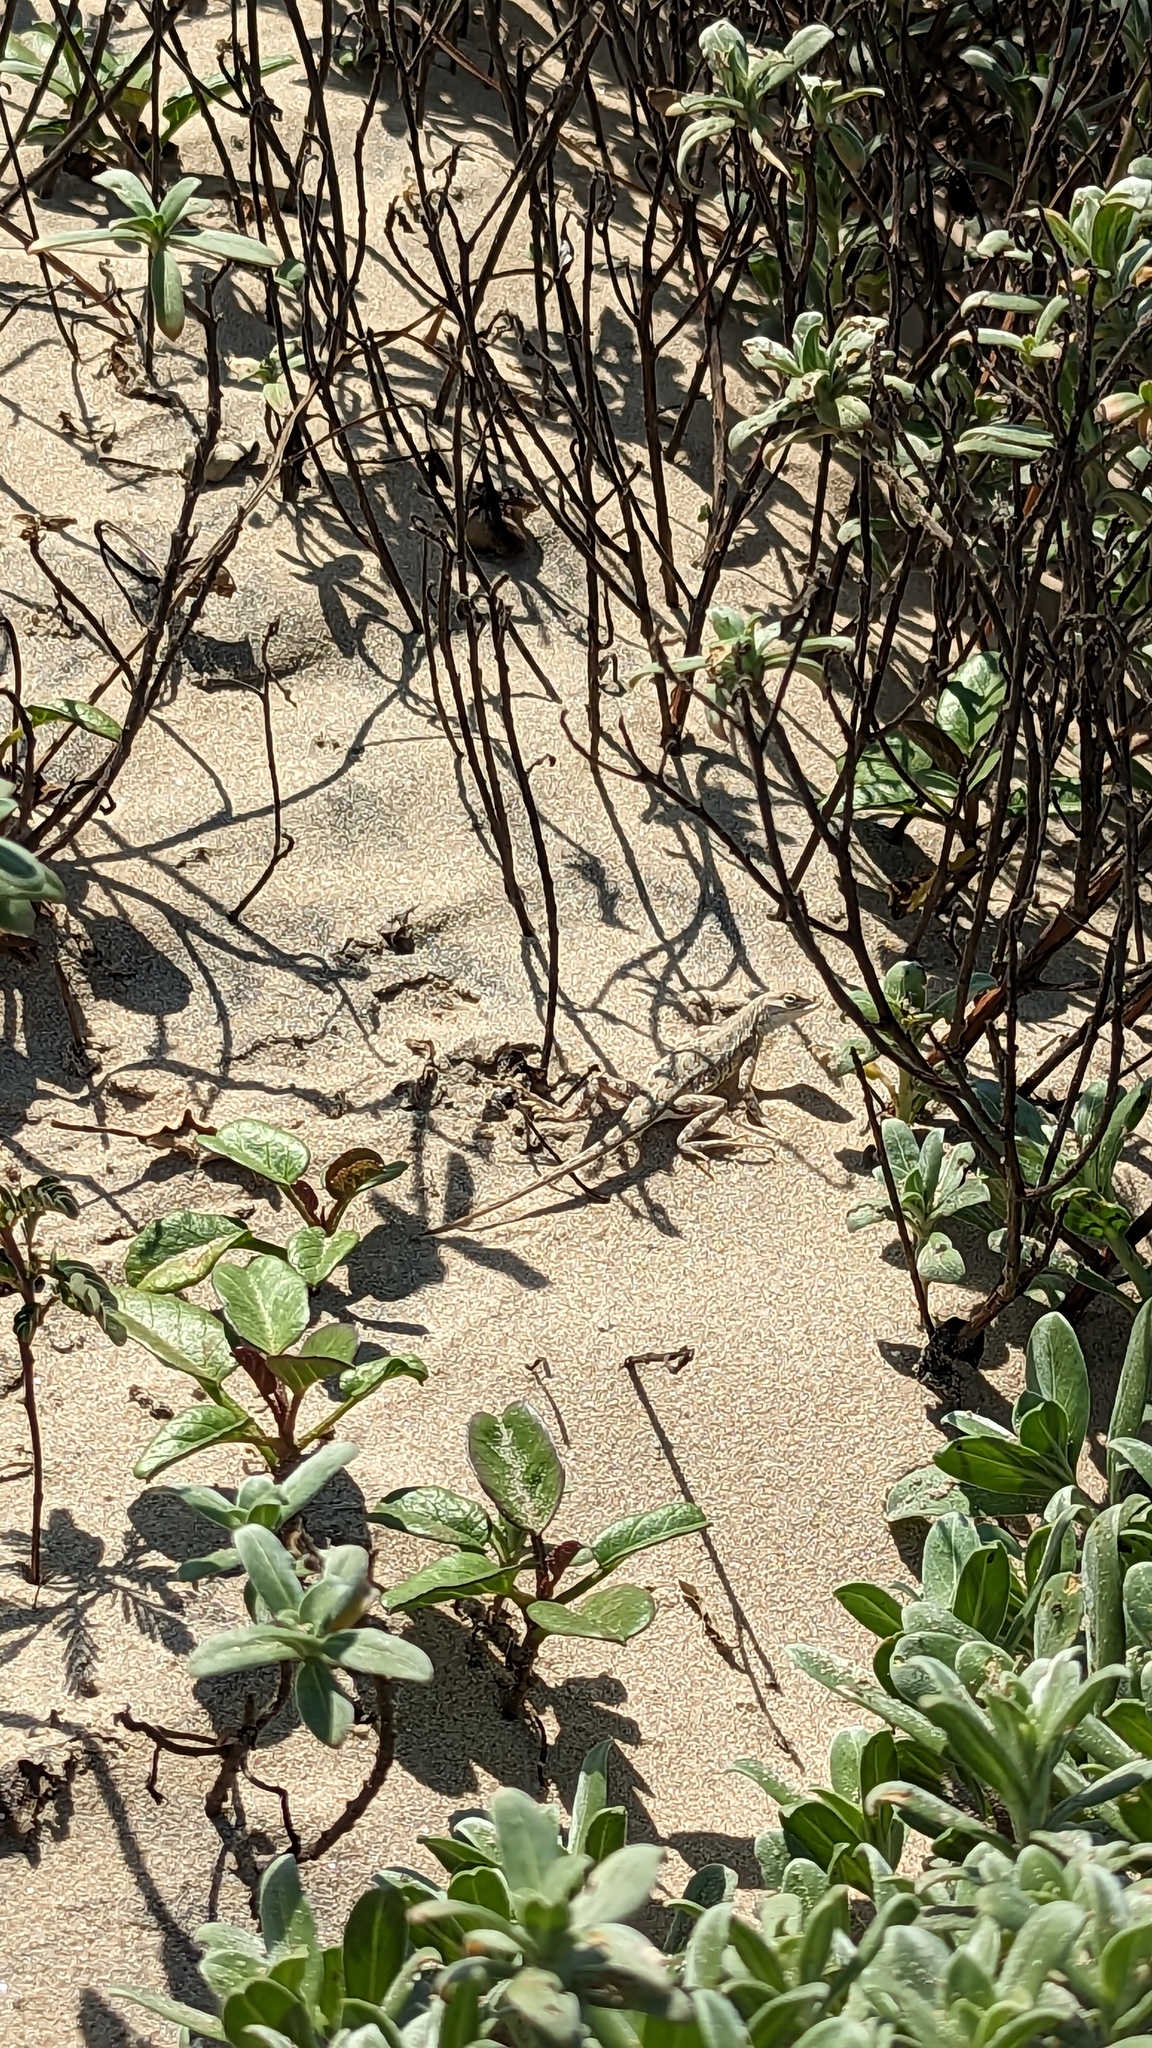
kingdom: Animalia
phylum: Chordata
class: Squamata
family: Phrynosomatidae
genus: Holbrookia
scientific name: Holbrookia propinqua
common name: Keeled earless lizard
